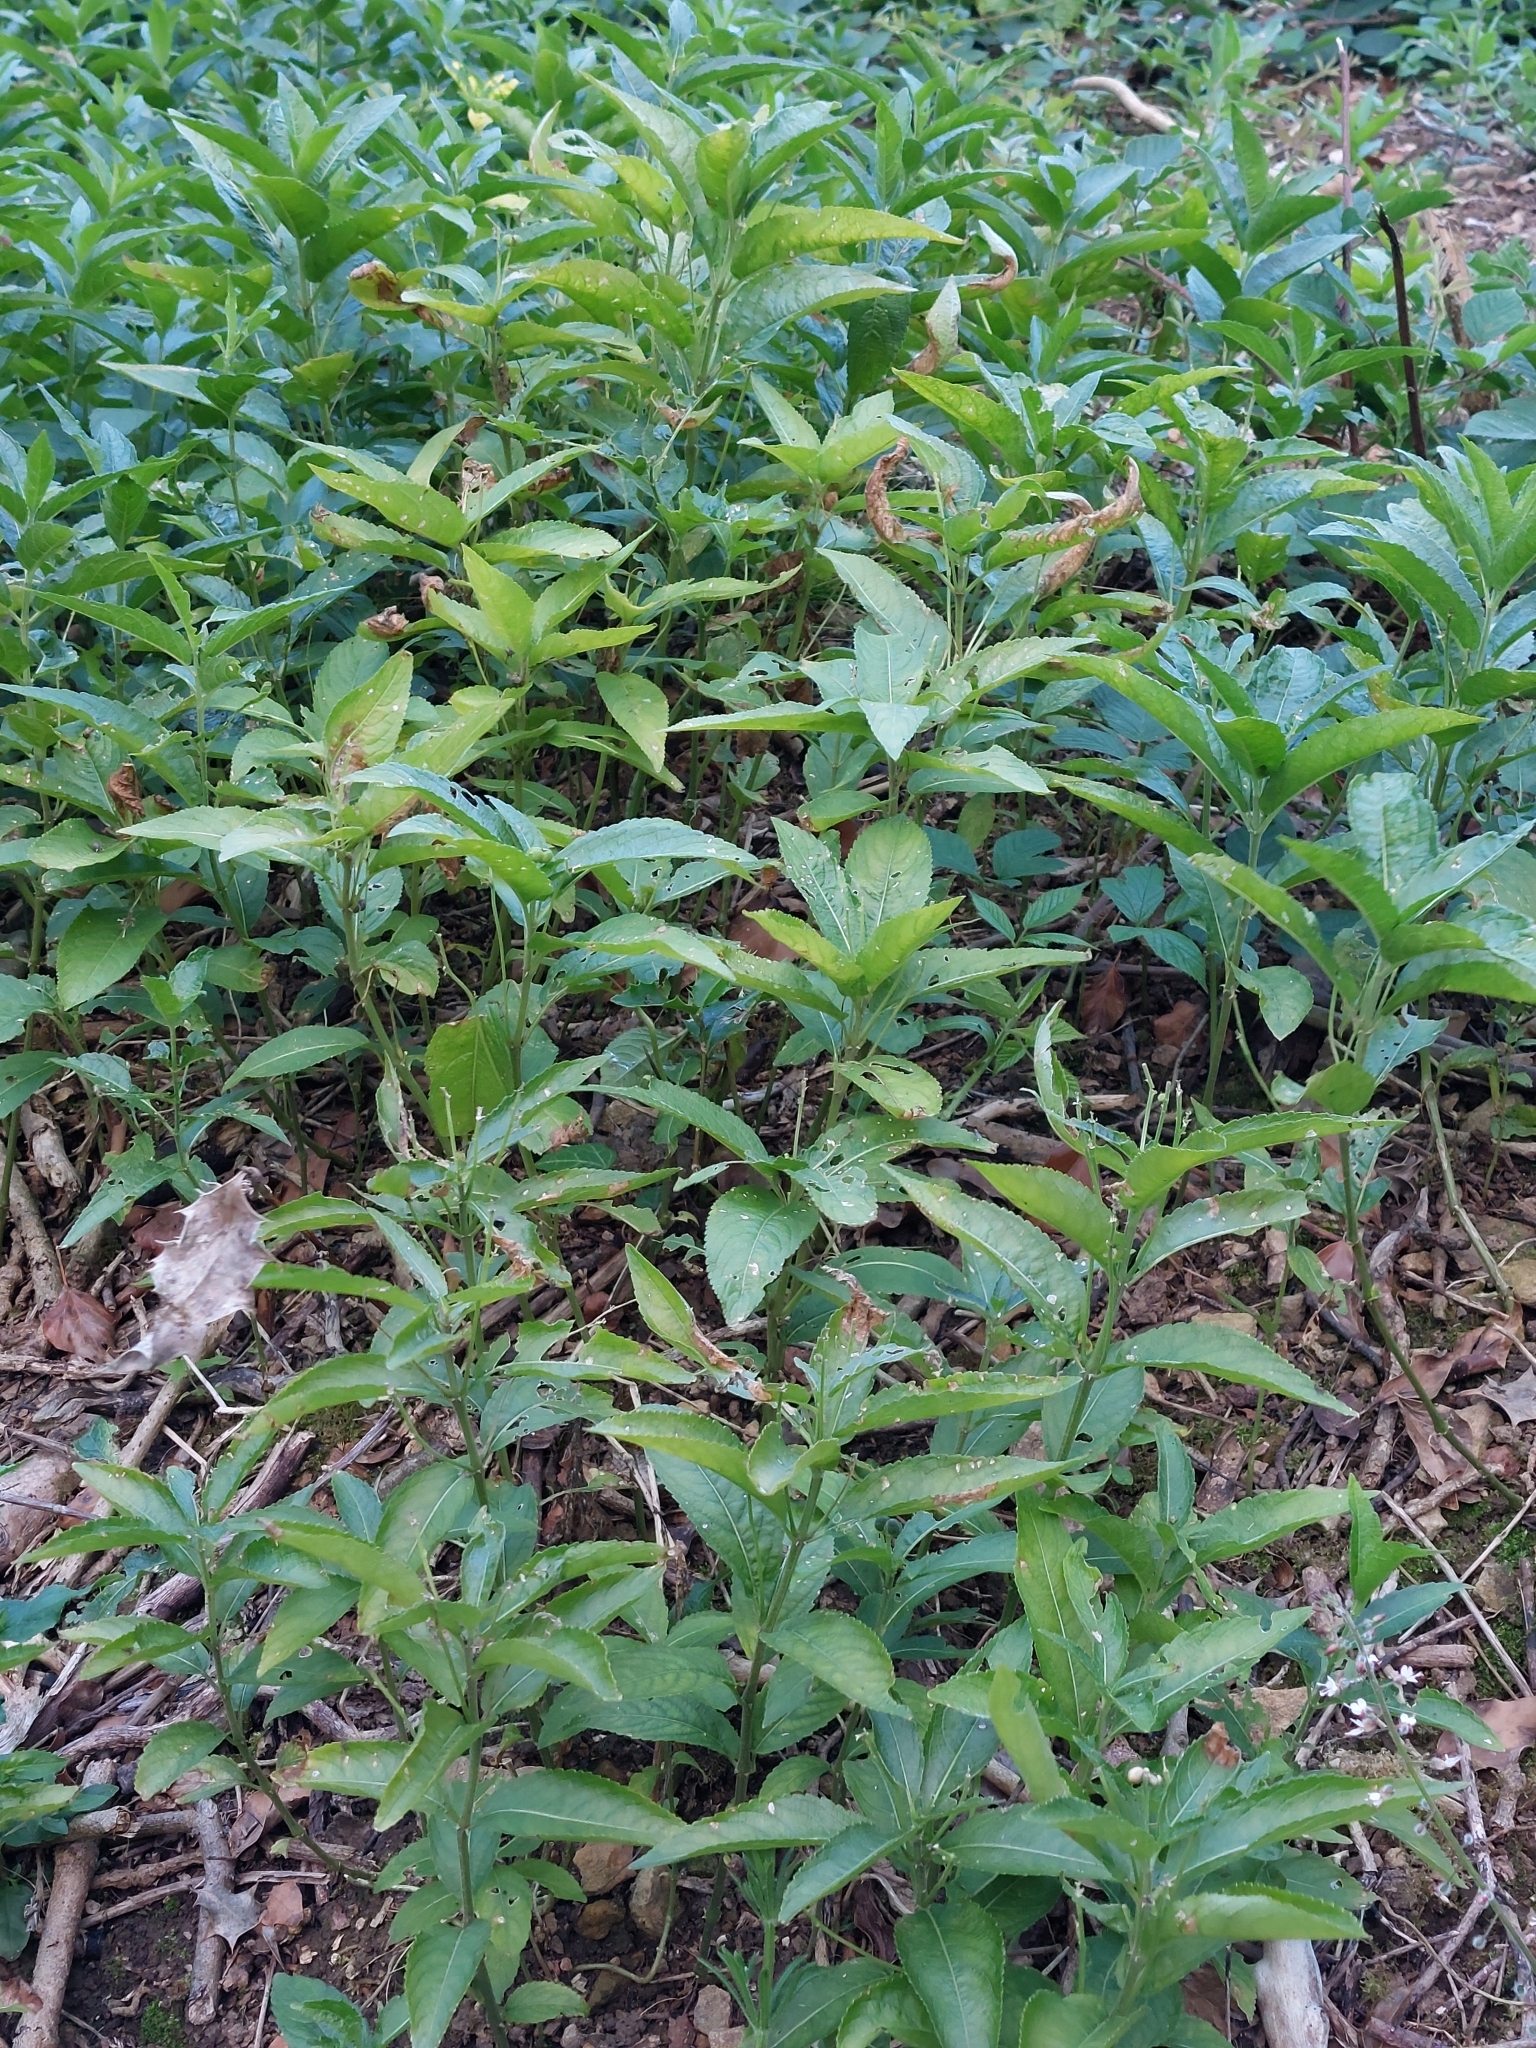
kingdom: Plantae
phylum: Tracheophyta
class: Magnoliopsida
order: Malpighiales
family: Euphorbiaceae
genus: Mercurialis
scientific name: Mercurialis perennis
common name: Dog mercury
